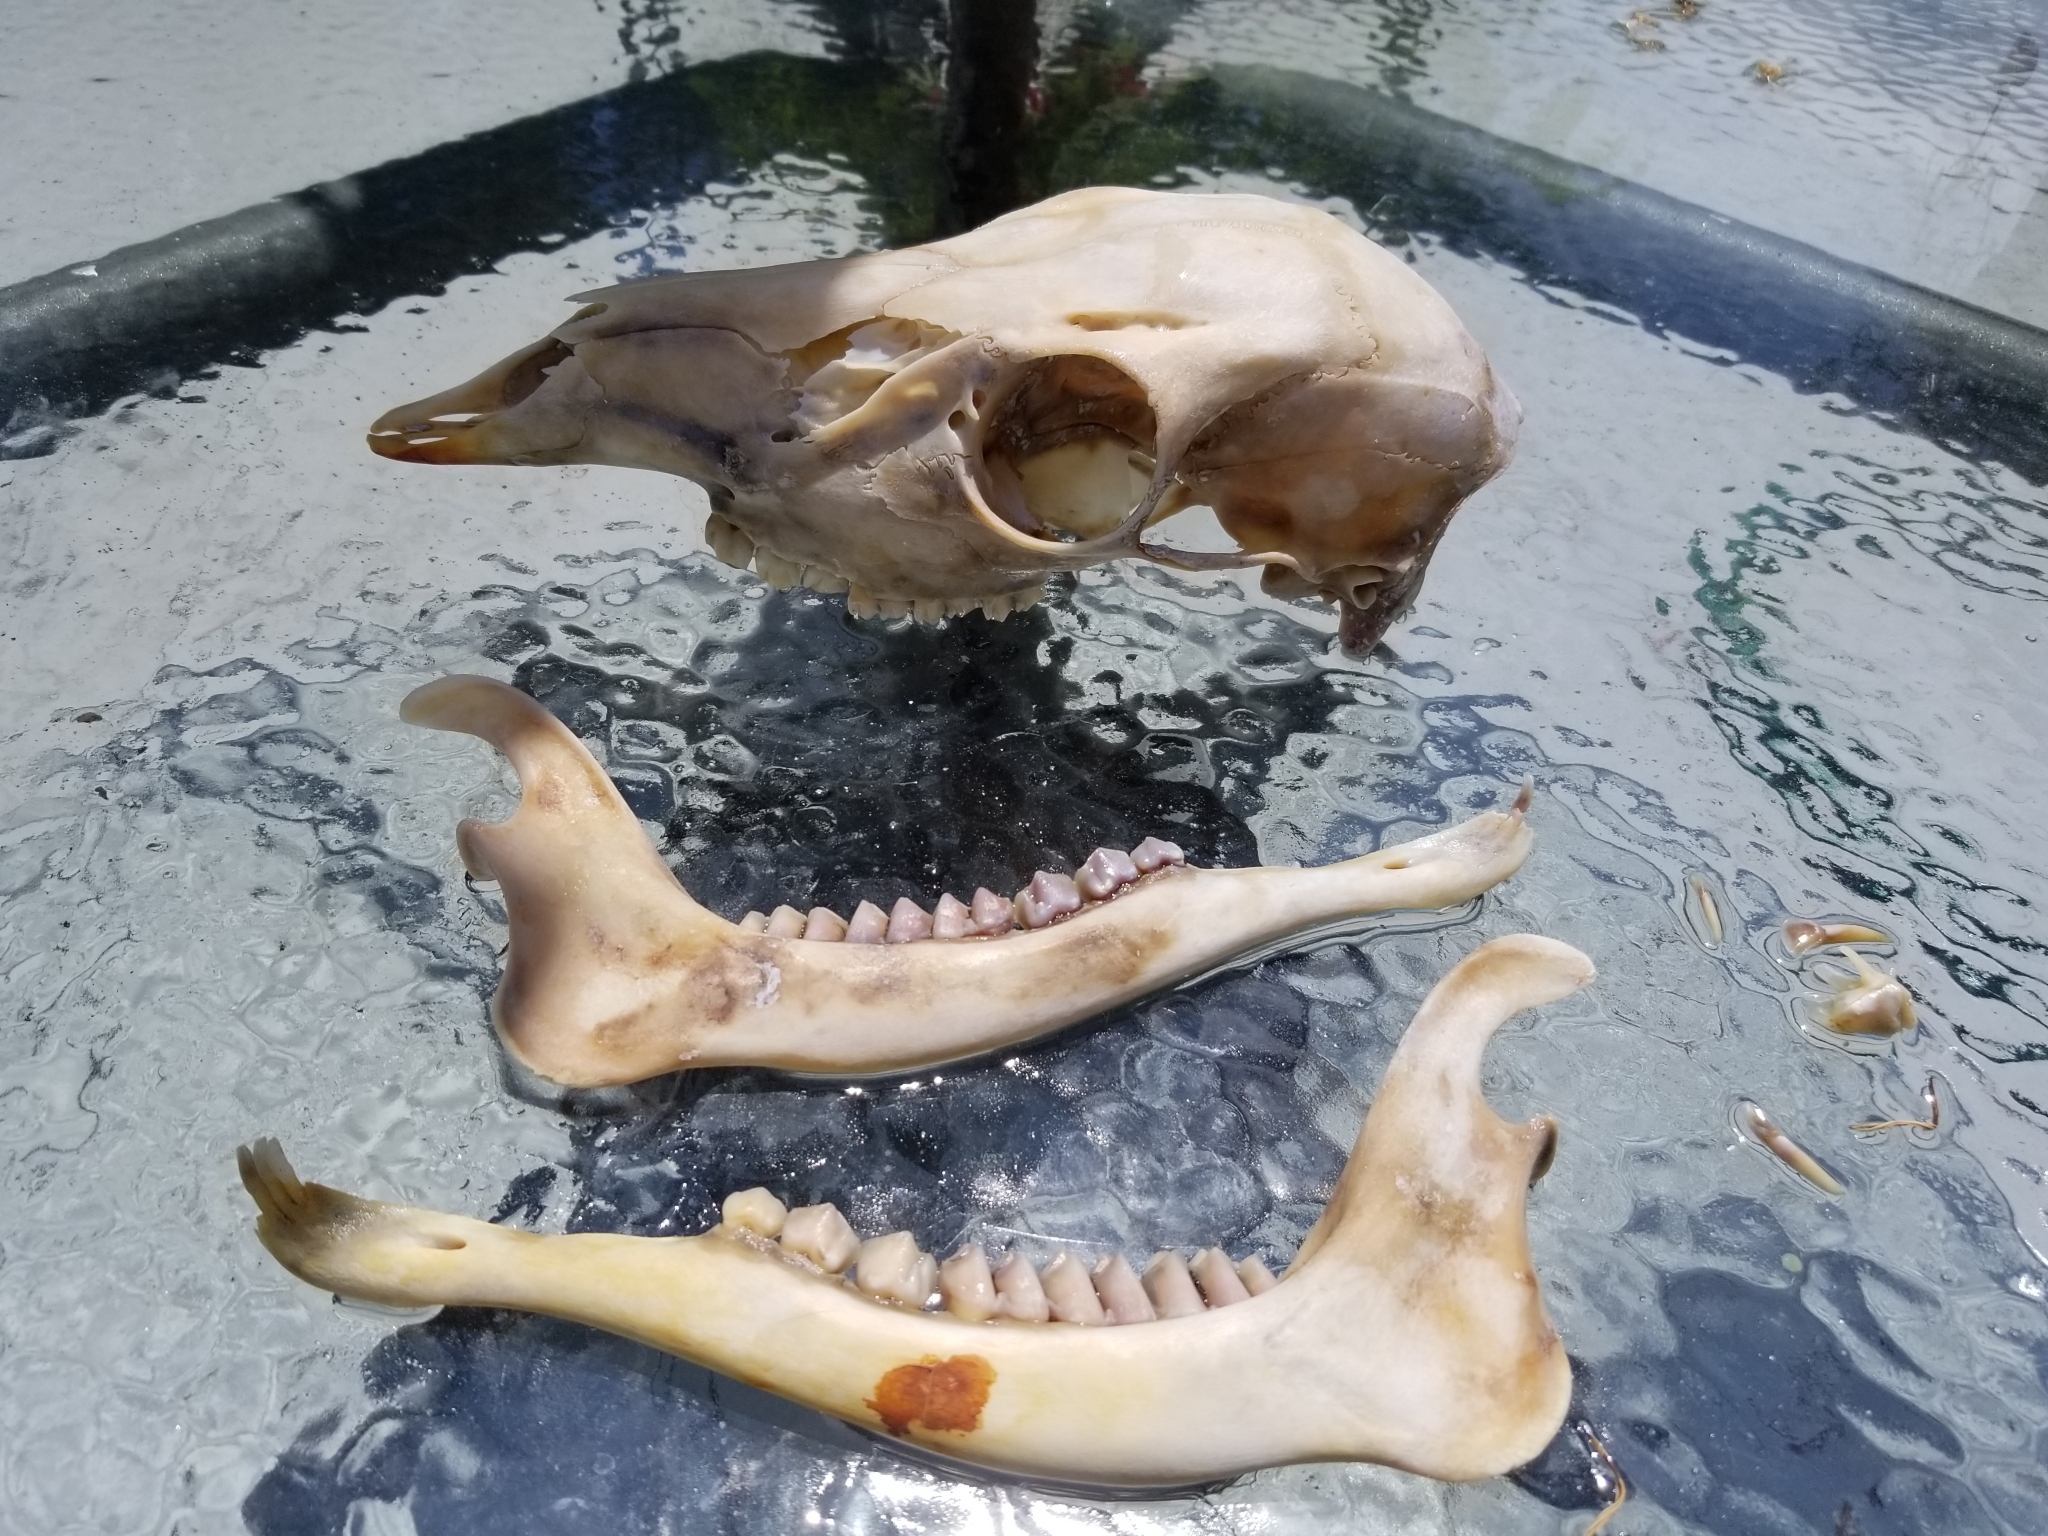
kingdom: Animalia
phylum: Chordata
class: Mammalia
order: Artiodactyla
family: Cervidae
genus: Odocoileus
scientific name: Odocoileus virginianus
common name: White-tailed deer
